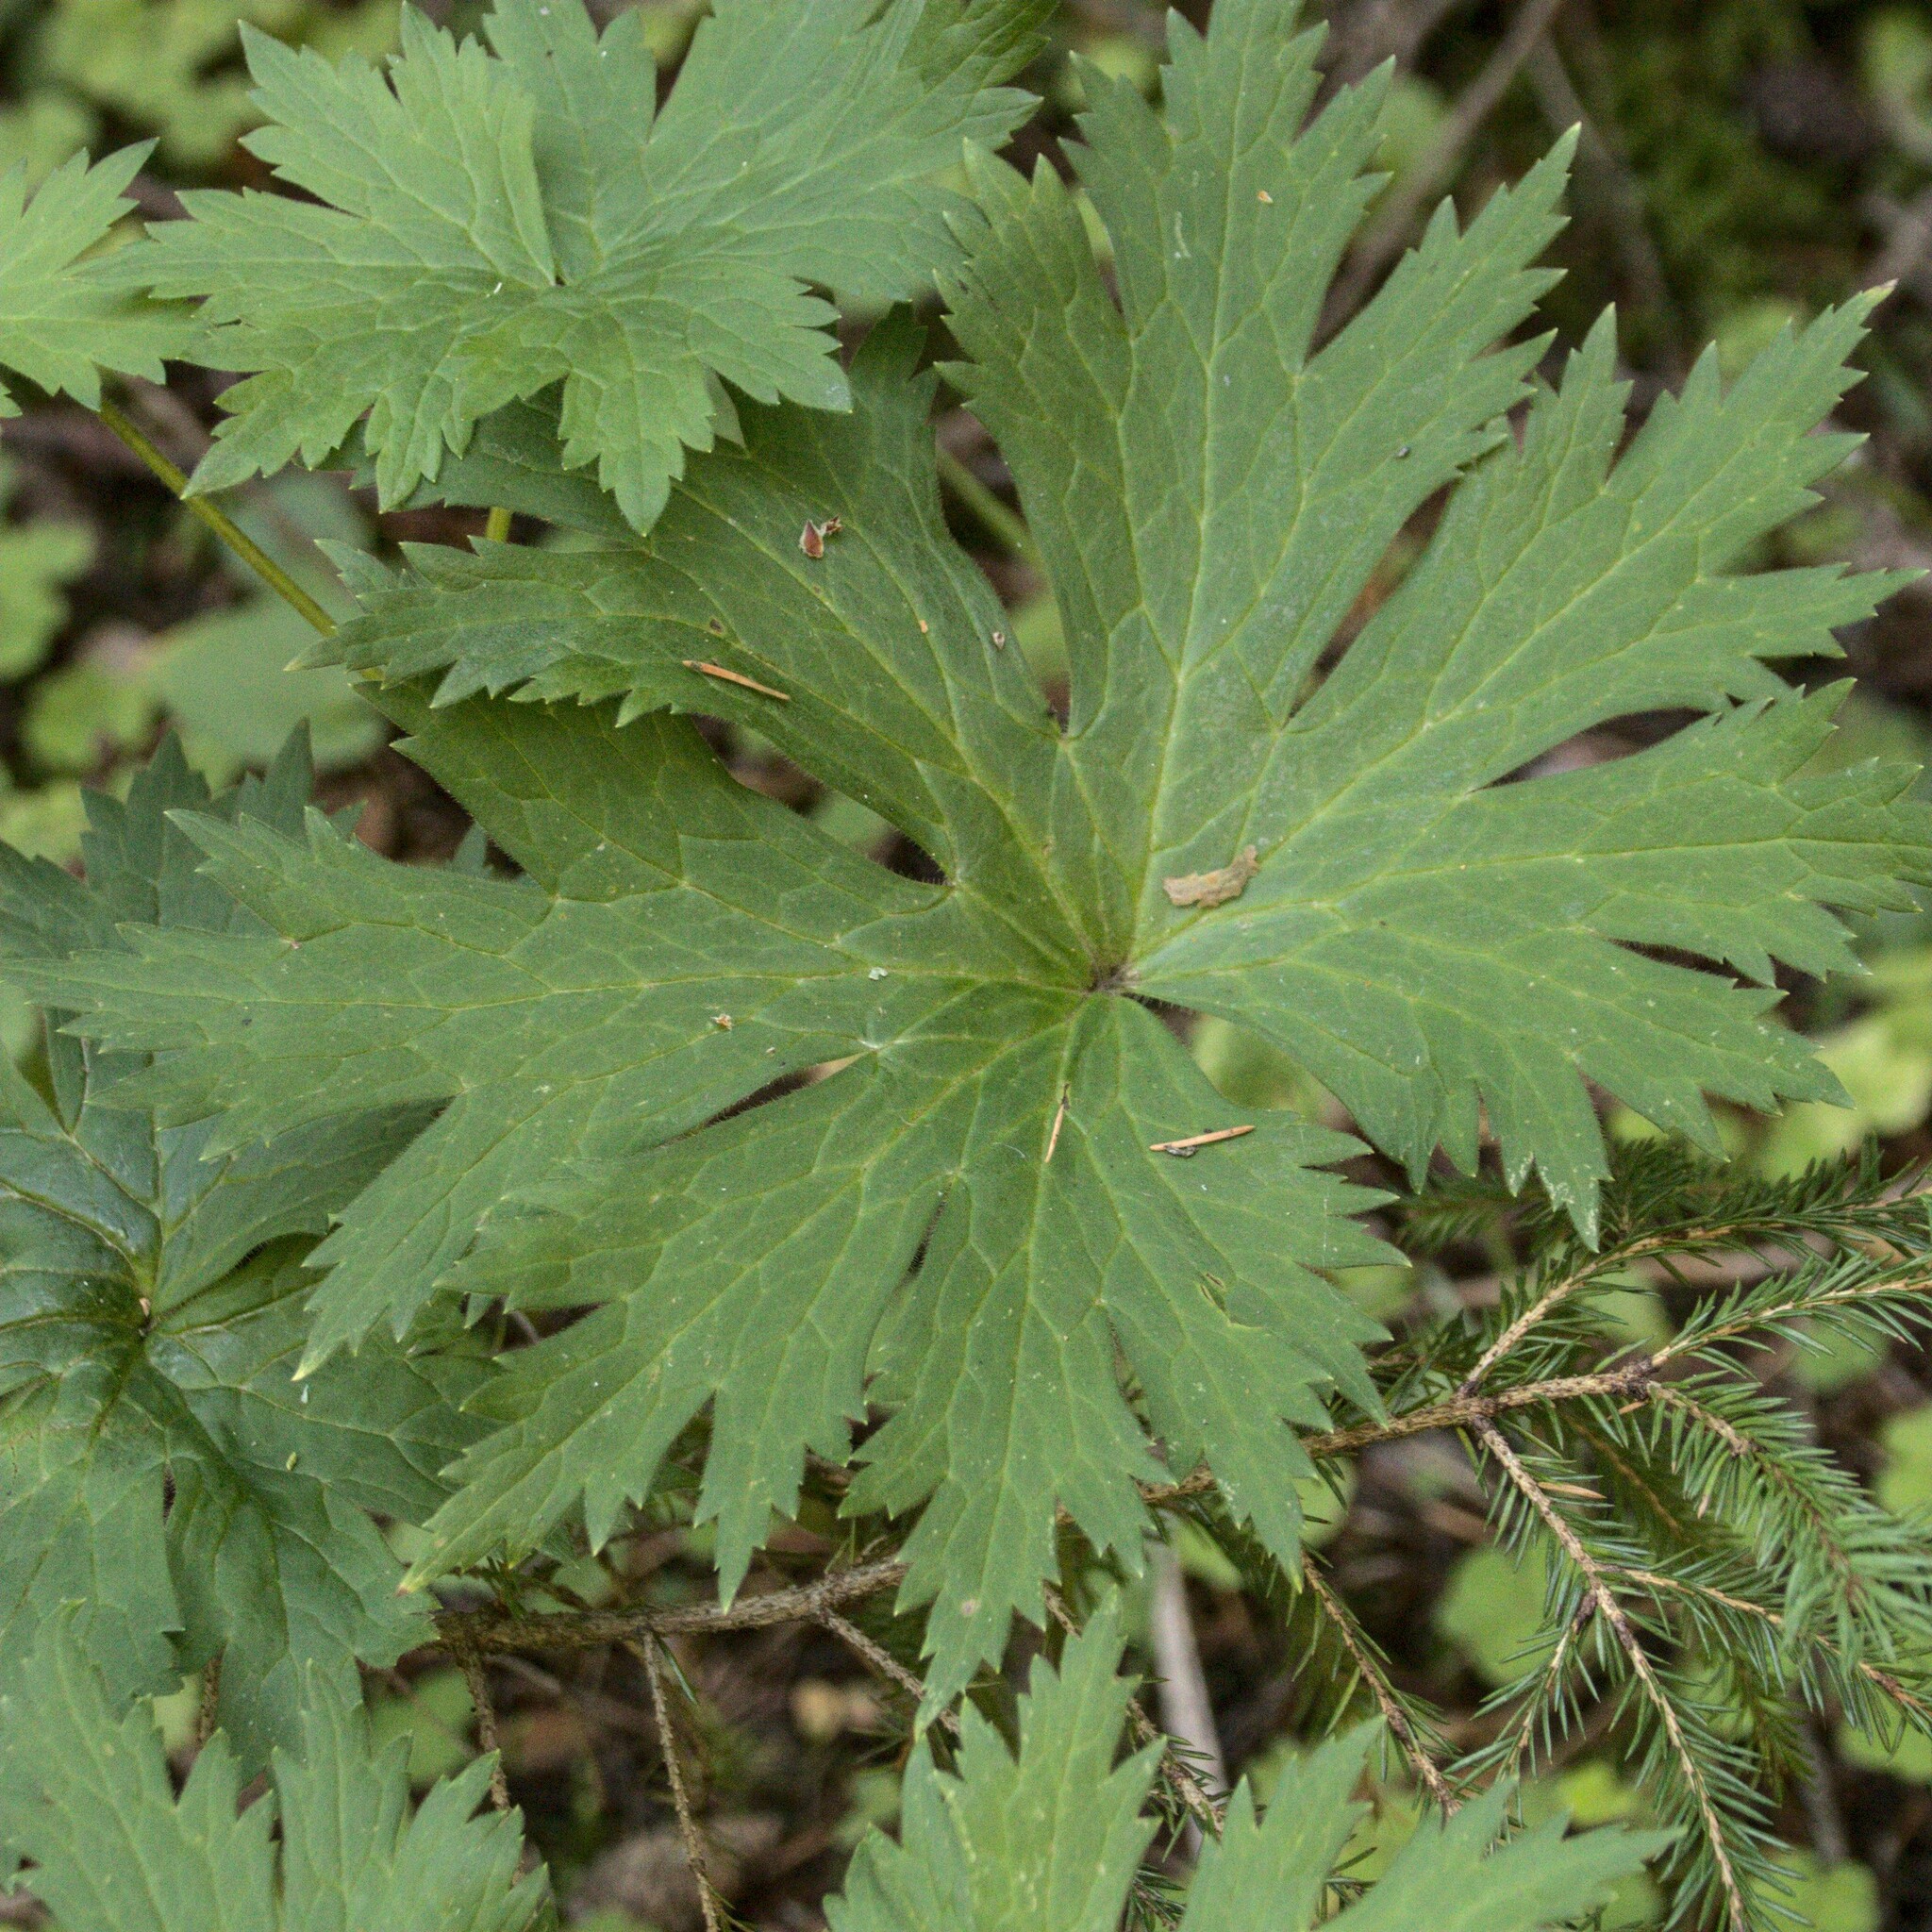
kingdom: Plantae
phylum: Tracheophyta
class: Magnoliopsida
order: Ranunculales
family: Ranunculaceae
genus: Aconitum
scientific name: Aconitum septentrionale
